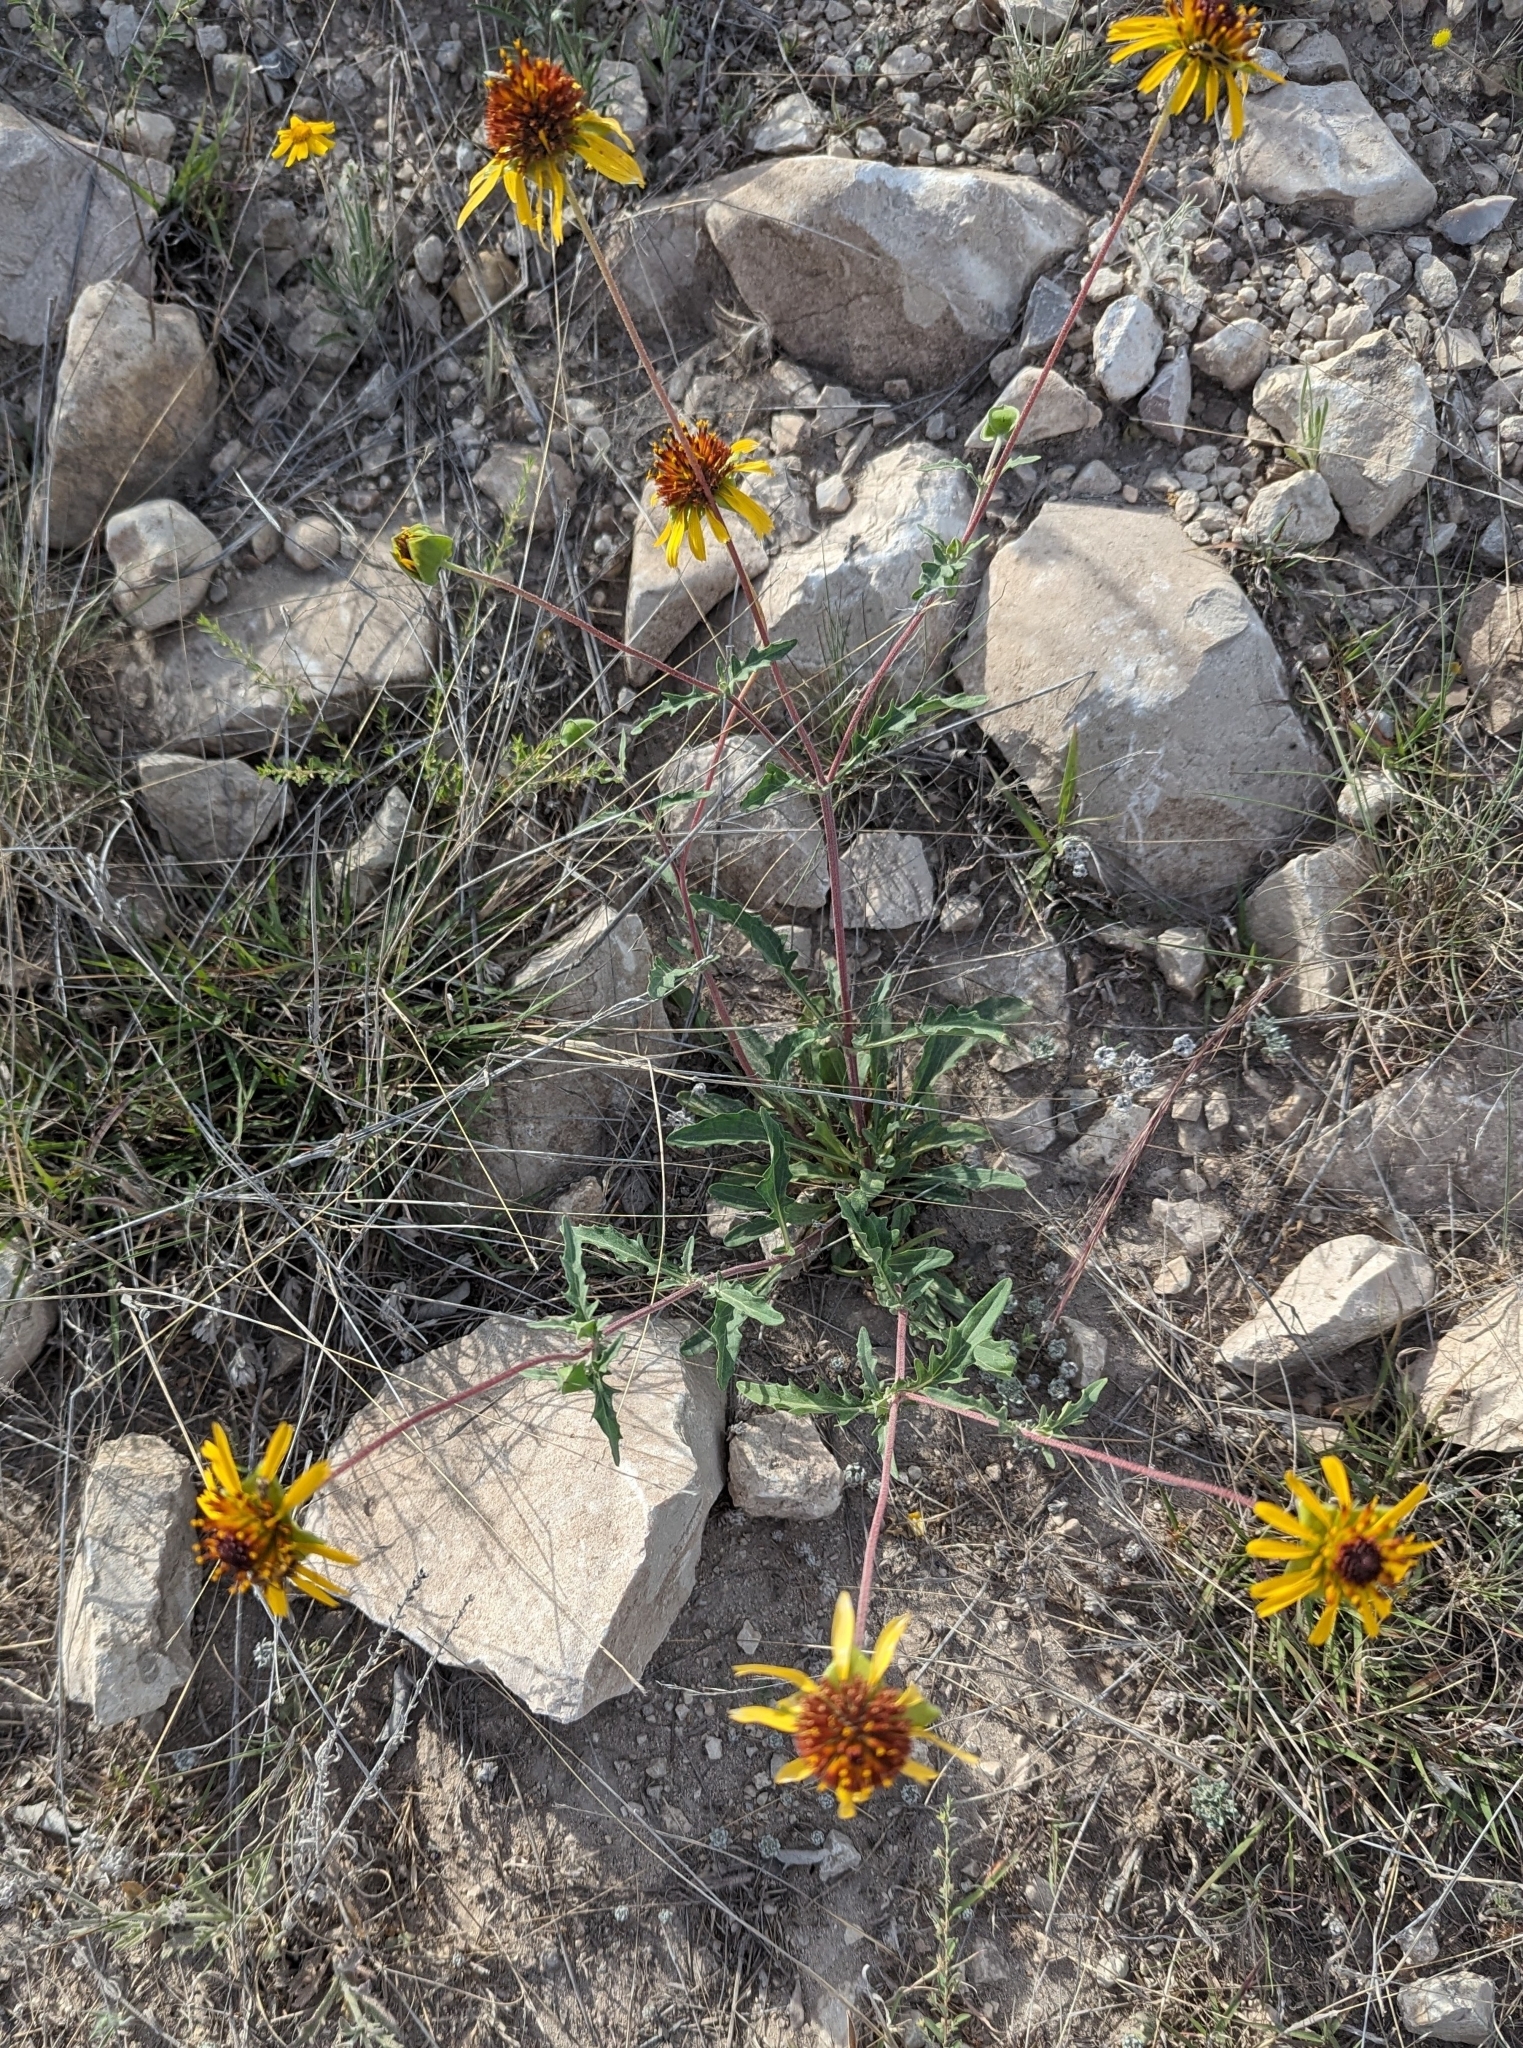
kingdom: Plantae
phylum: Tracheophyta
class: Magnoliopsida
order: Asterales
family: Asteraceae
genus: Tetragonotheca
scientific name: Tetragonotheca texana
